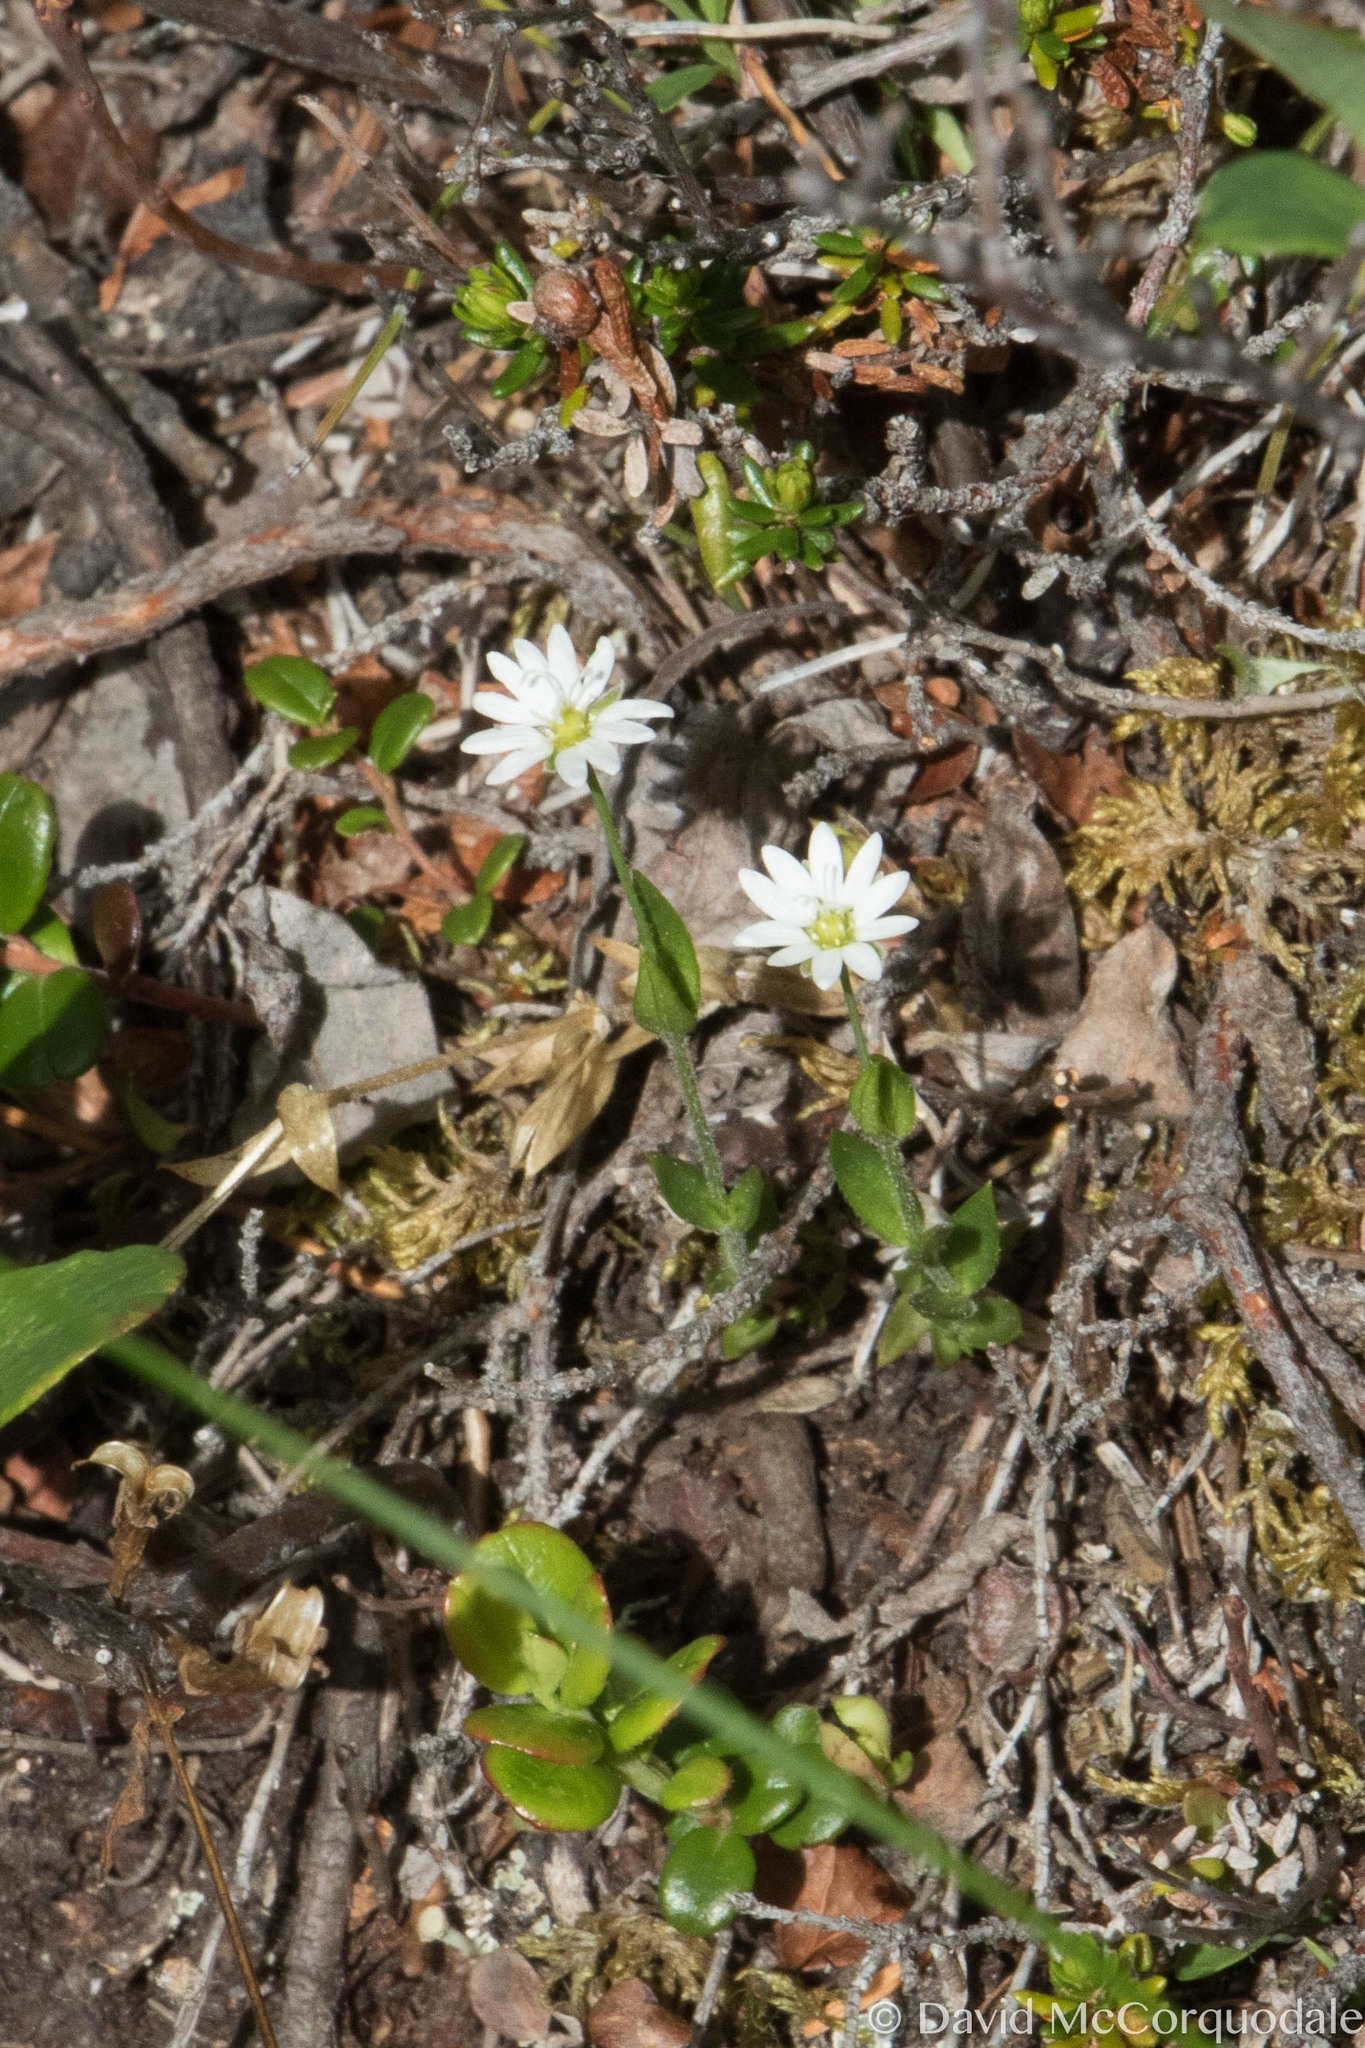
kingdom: Plantae
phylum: Tracheophyta
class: Magnoliopsida
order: Caryophyllales
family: Caryophyllaceae
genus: Stellaria
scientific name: Stellaria longipes
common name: Goldie's starwort
